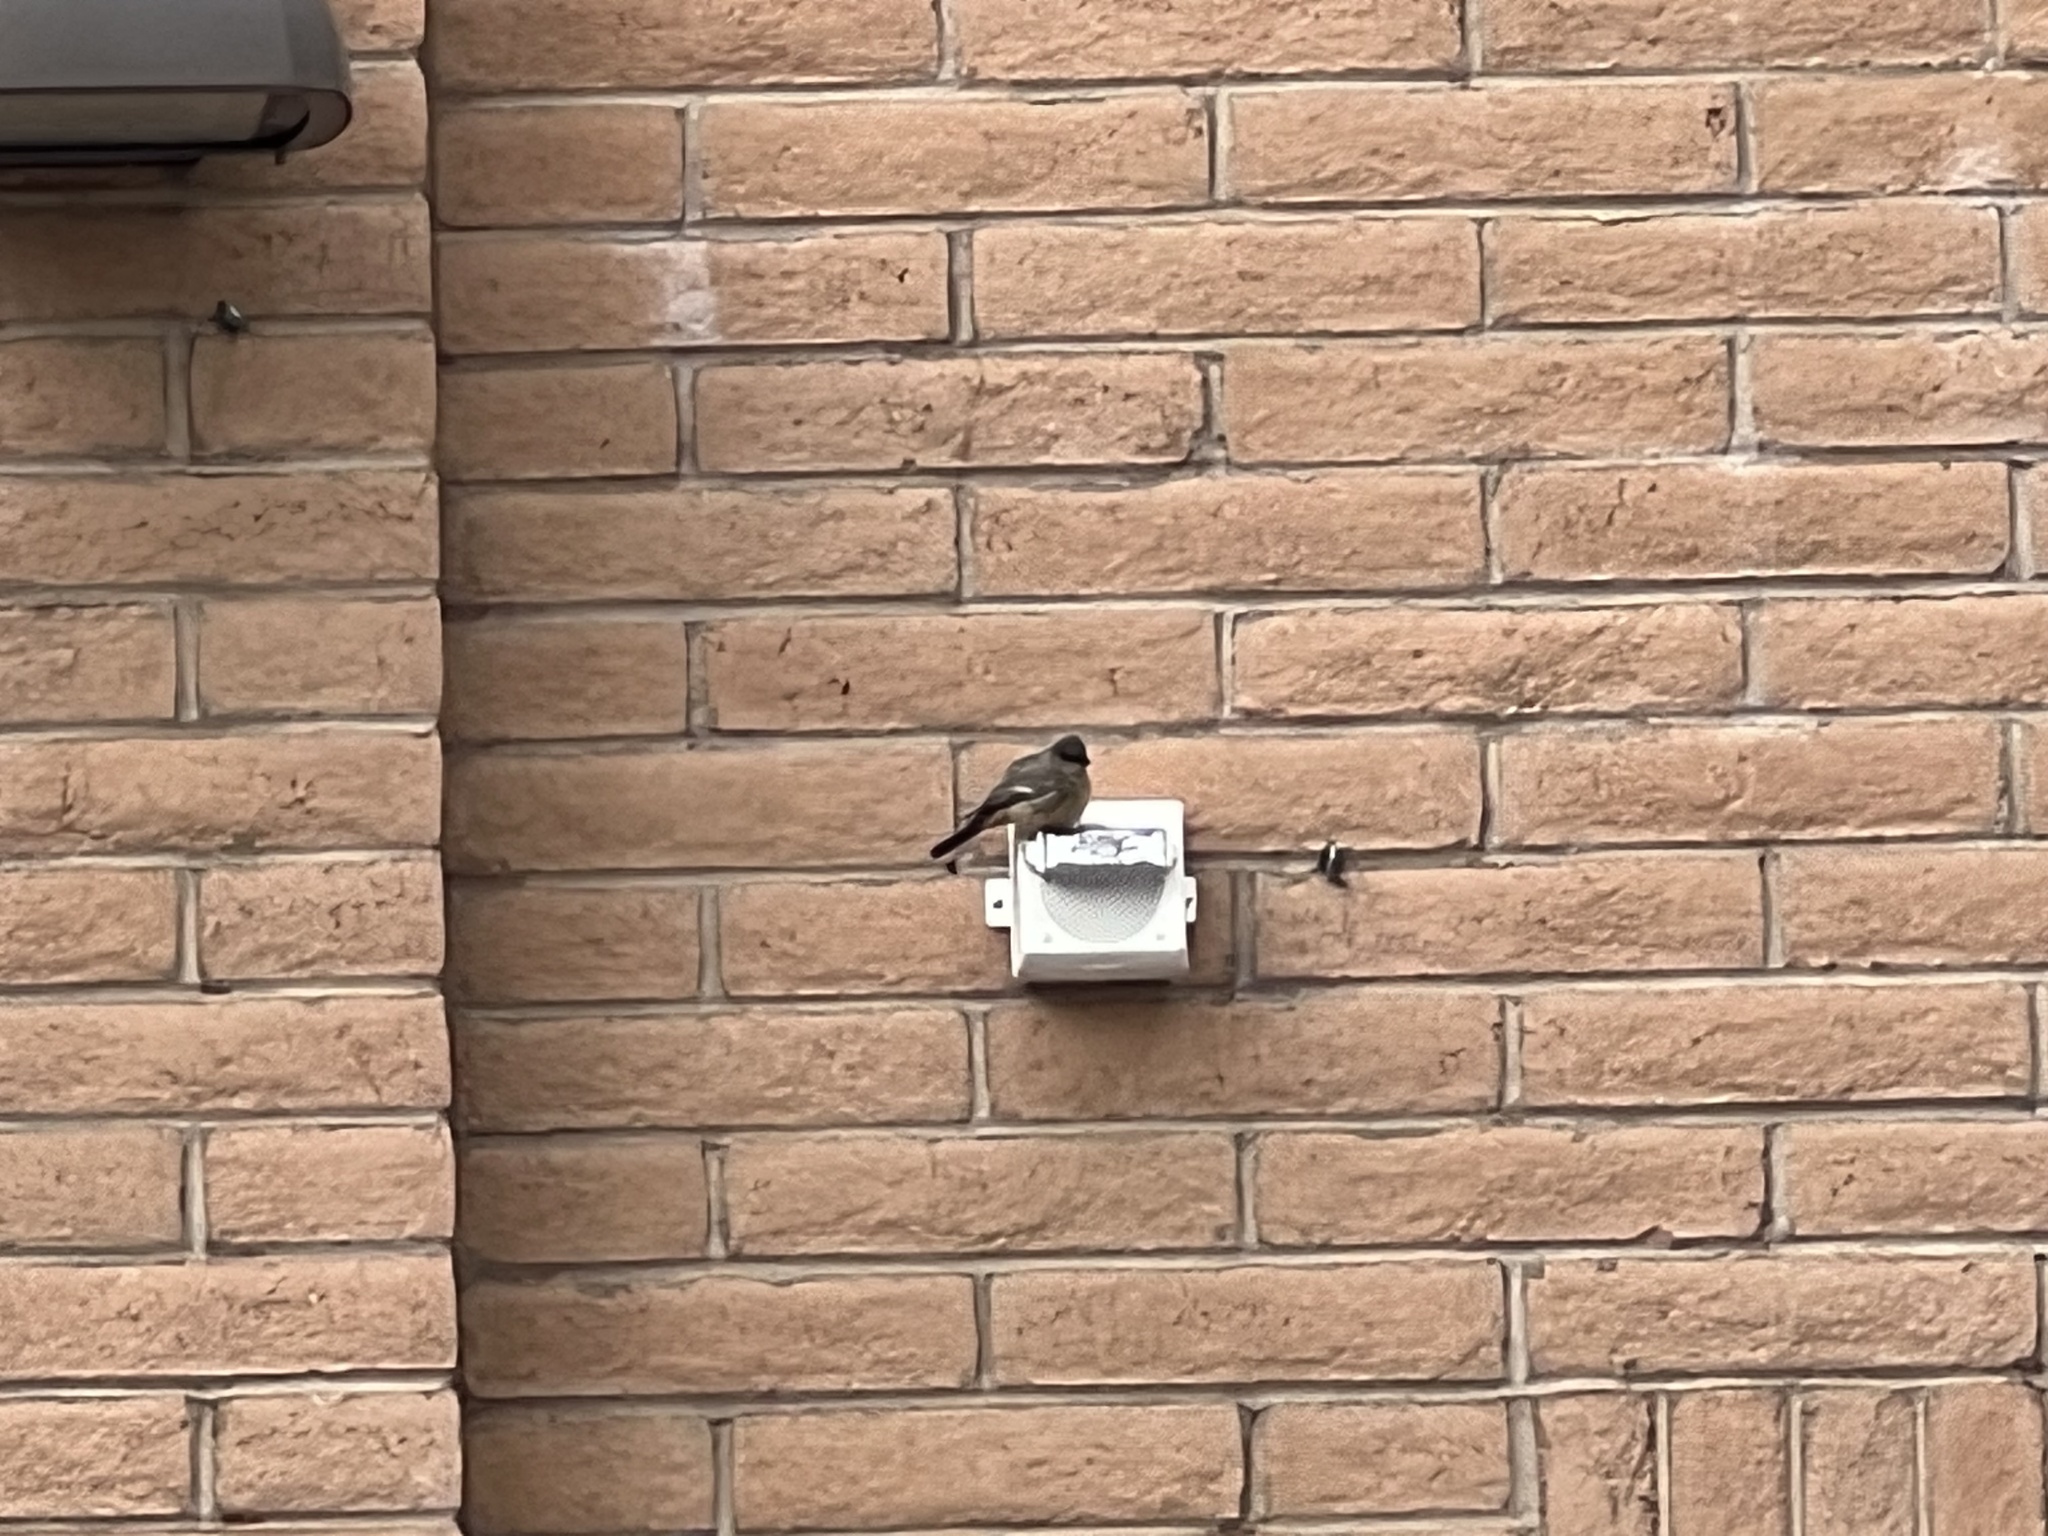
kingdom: Animalia
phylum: Chordata
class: Aves
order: Passeriformes
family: Tyrannidae
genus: Sayornis
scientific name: Sayornis saya
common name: Say's phoebe
